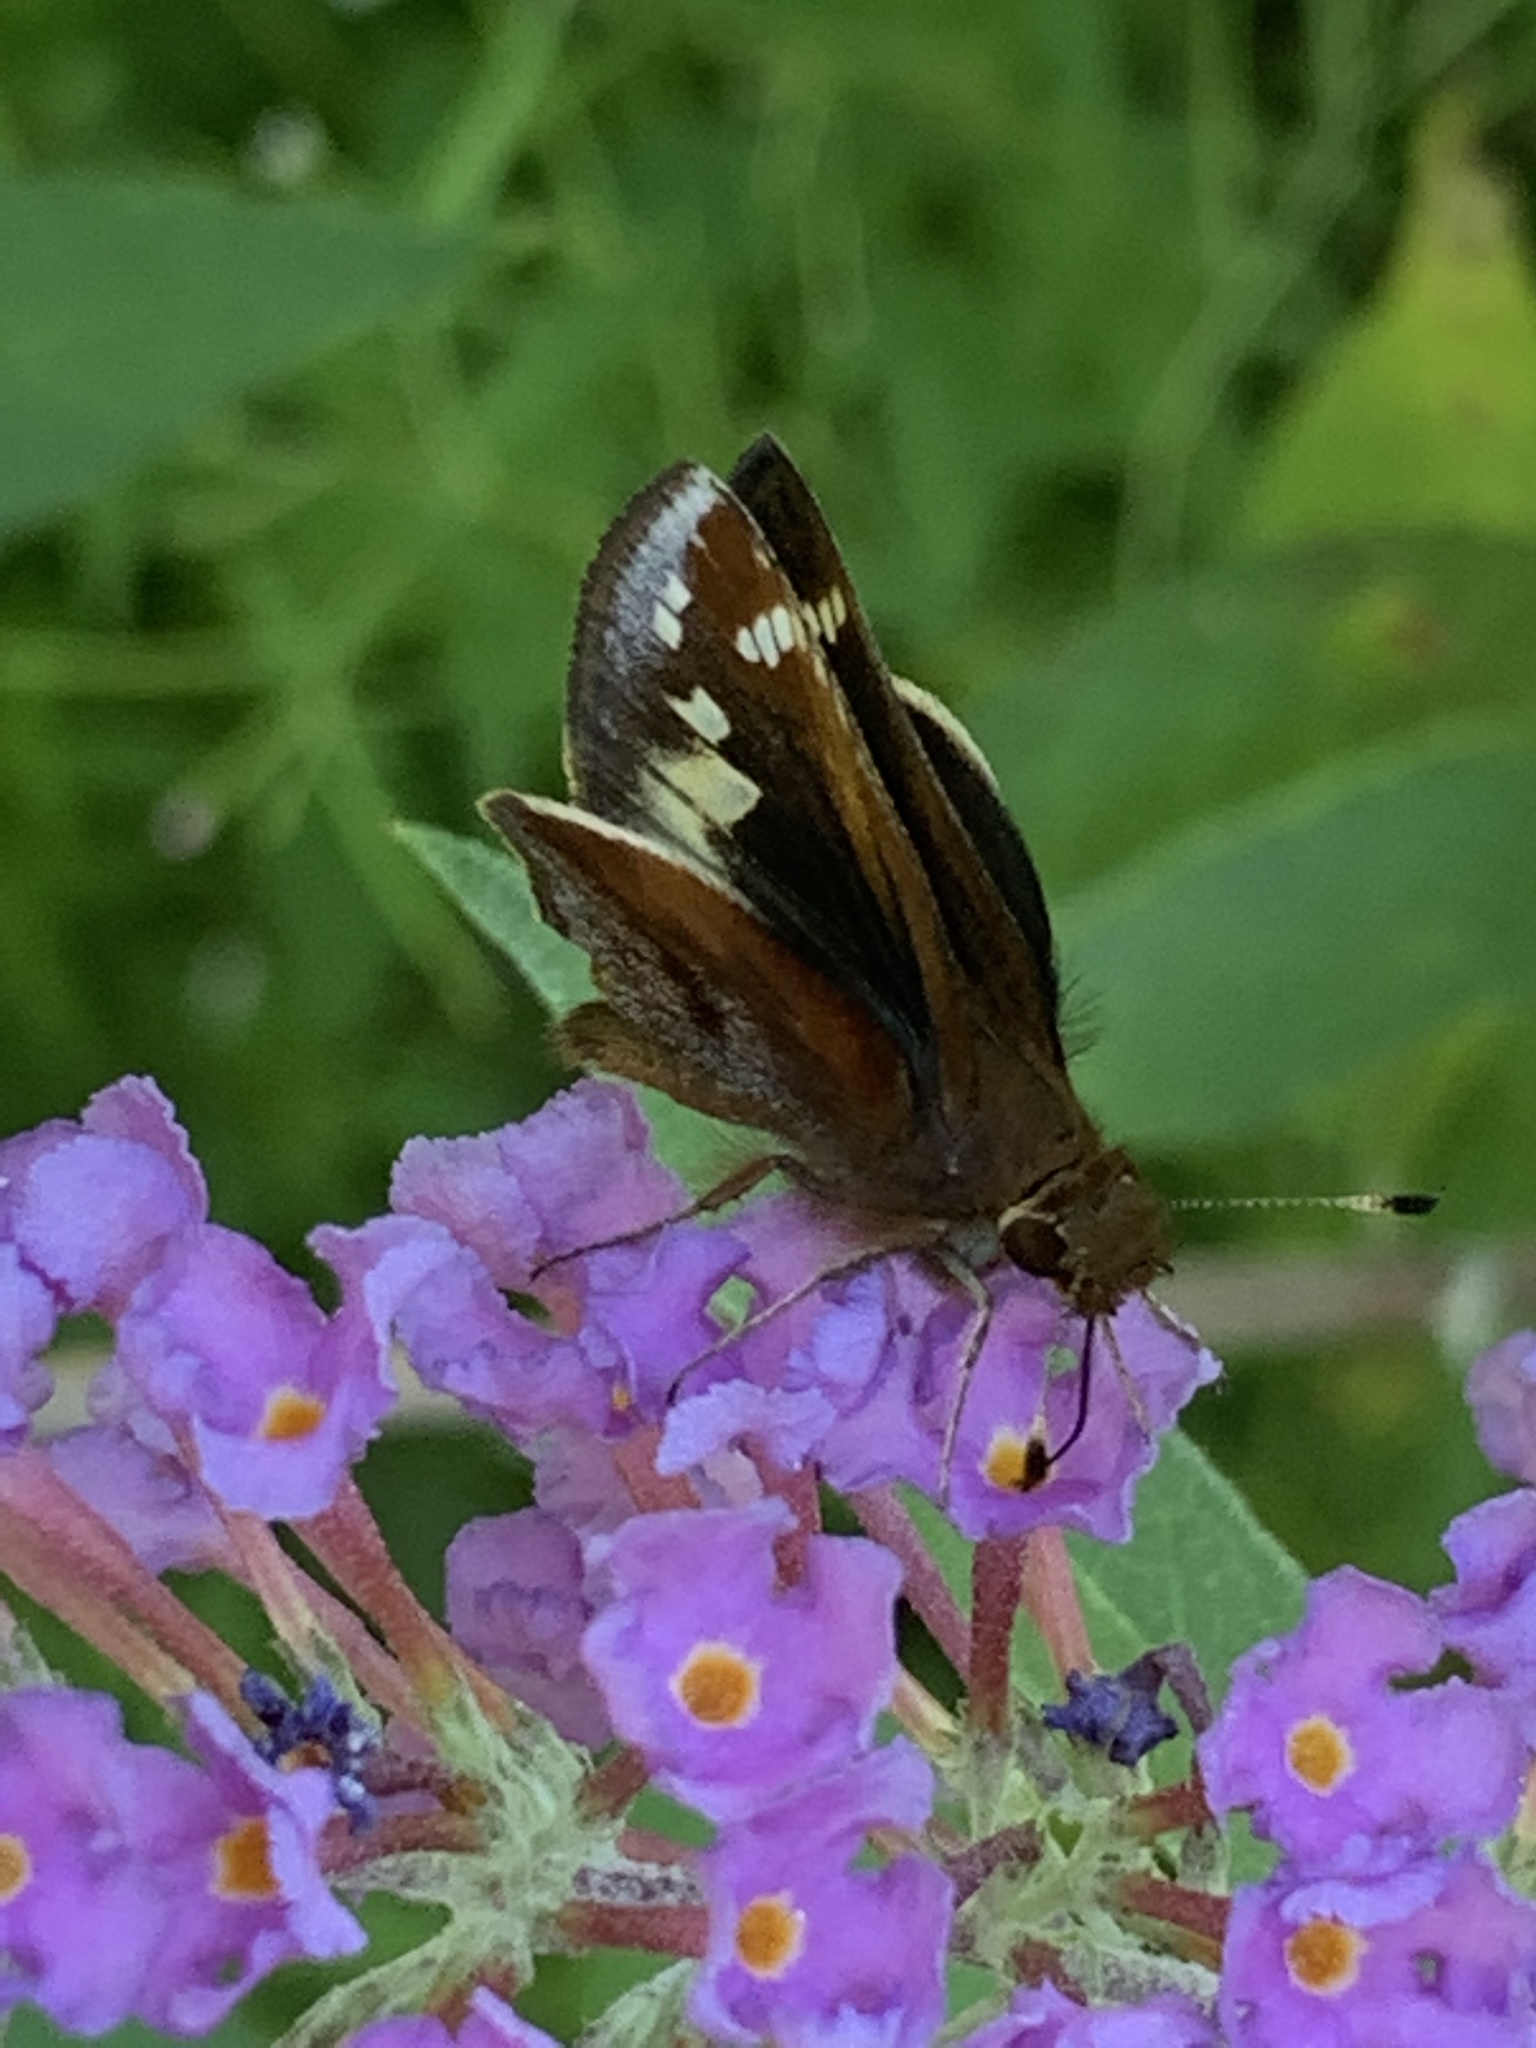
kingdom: Animalia
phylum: Arthropoda
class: Insecta
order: Lepidoptera
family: Hesperiidae
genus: Lon
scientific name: Lon zabulon
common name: Zabulon skipper
